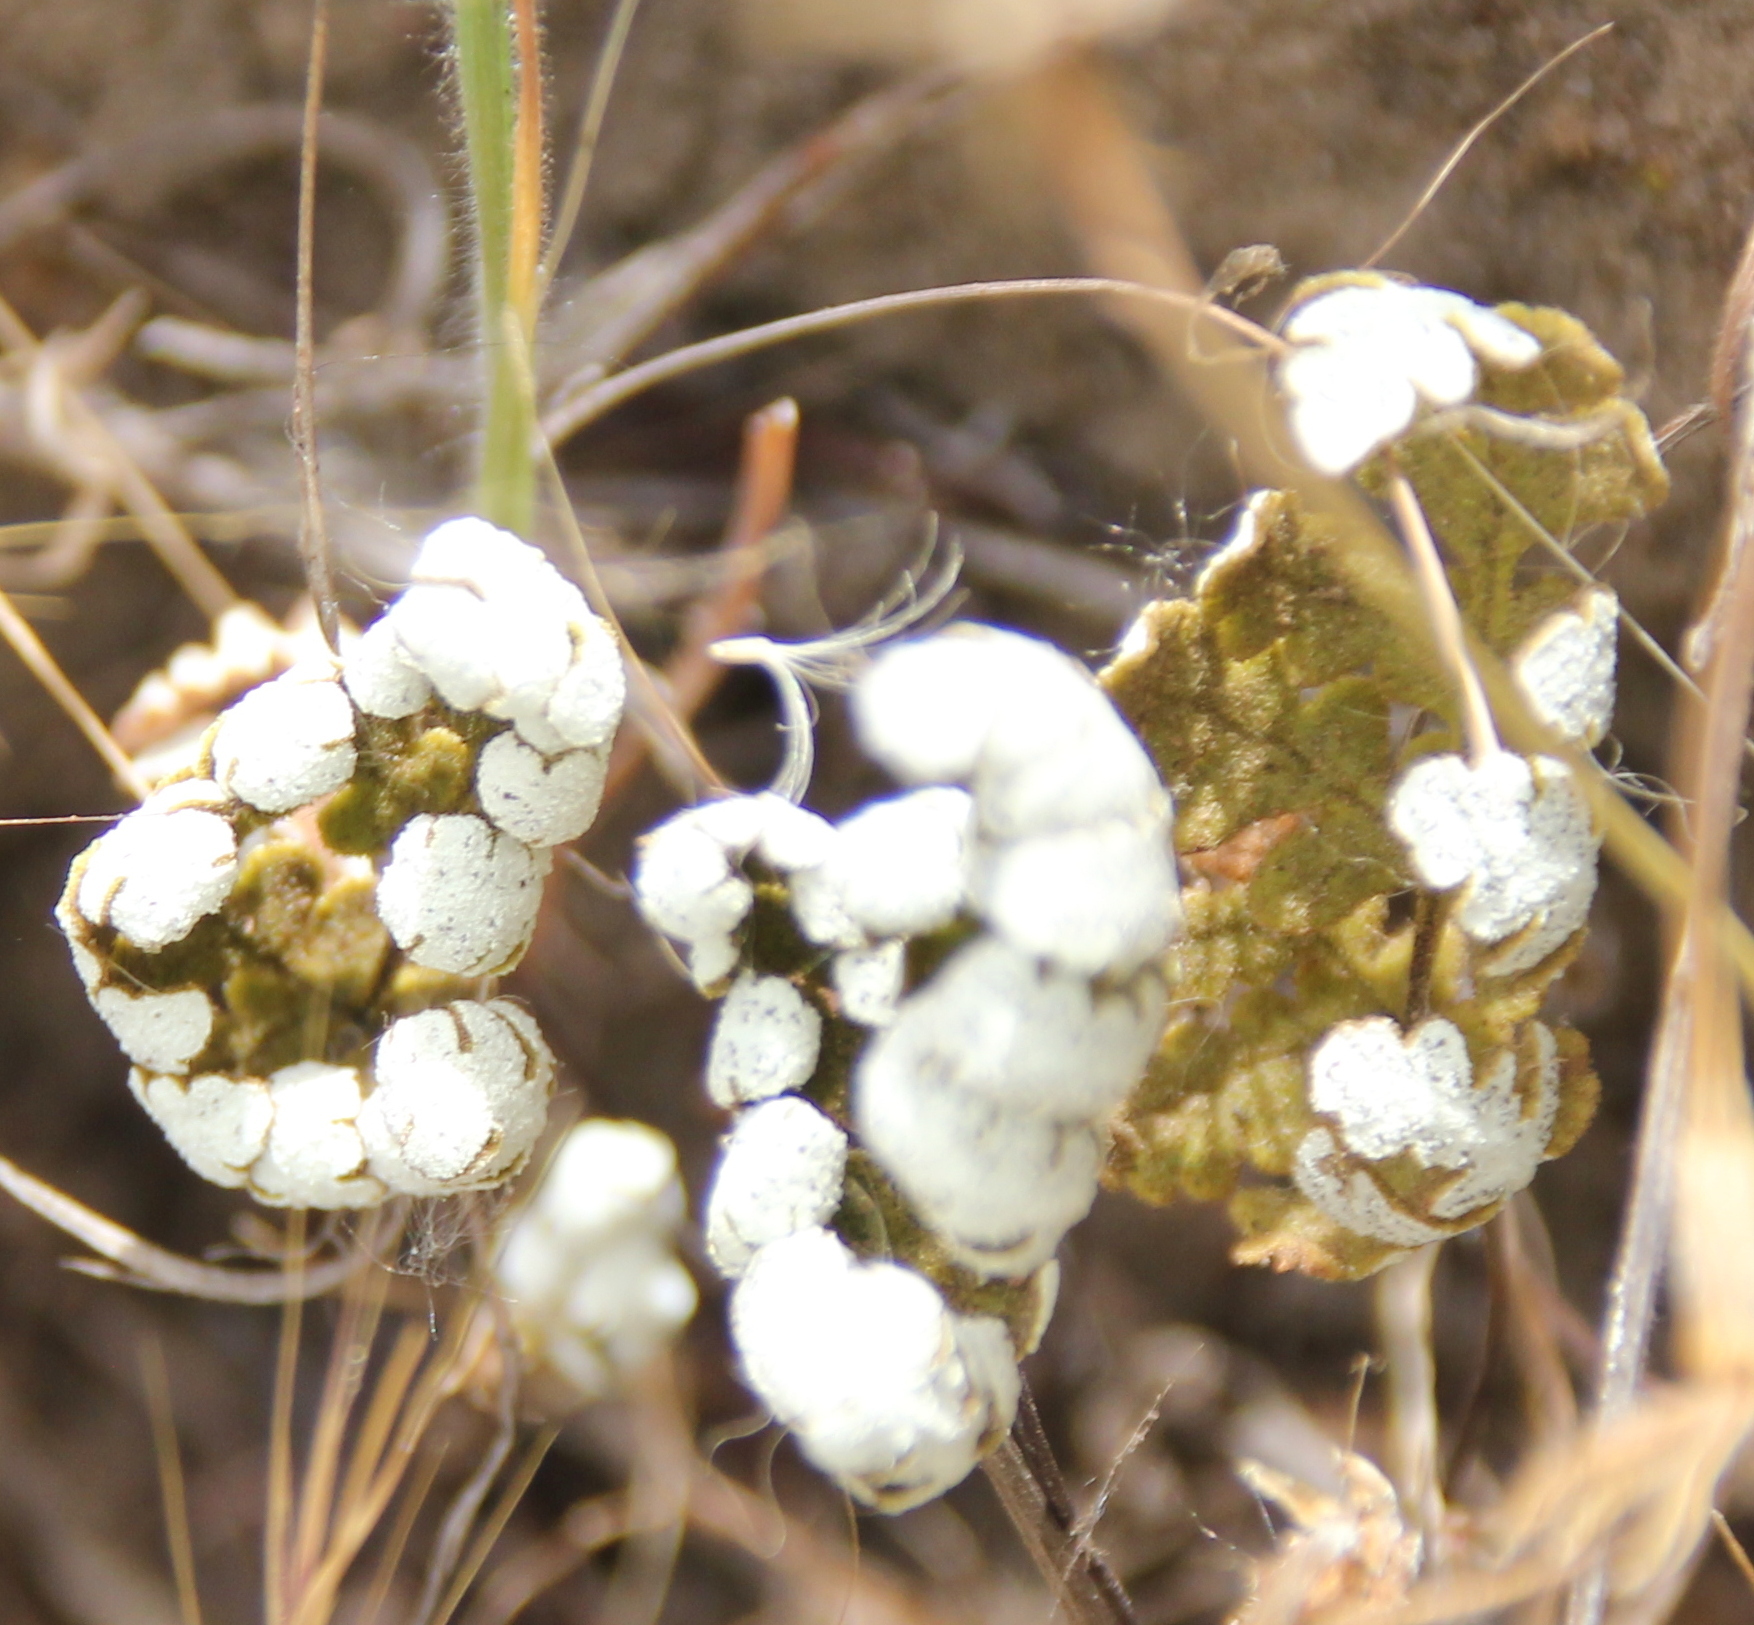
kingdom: Plantae
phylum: Tracheophyta
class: Polypodiopsida
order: Polypodiales
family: Pteridaceae
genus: Pentagramma
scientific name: Pentagramma glanduloviscida
